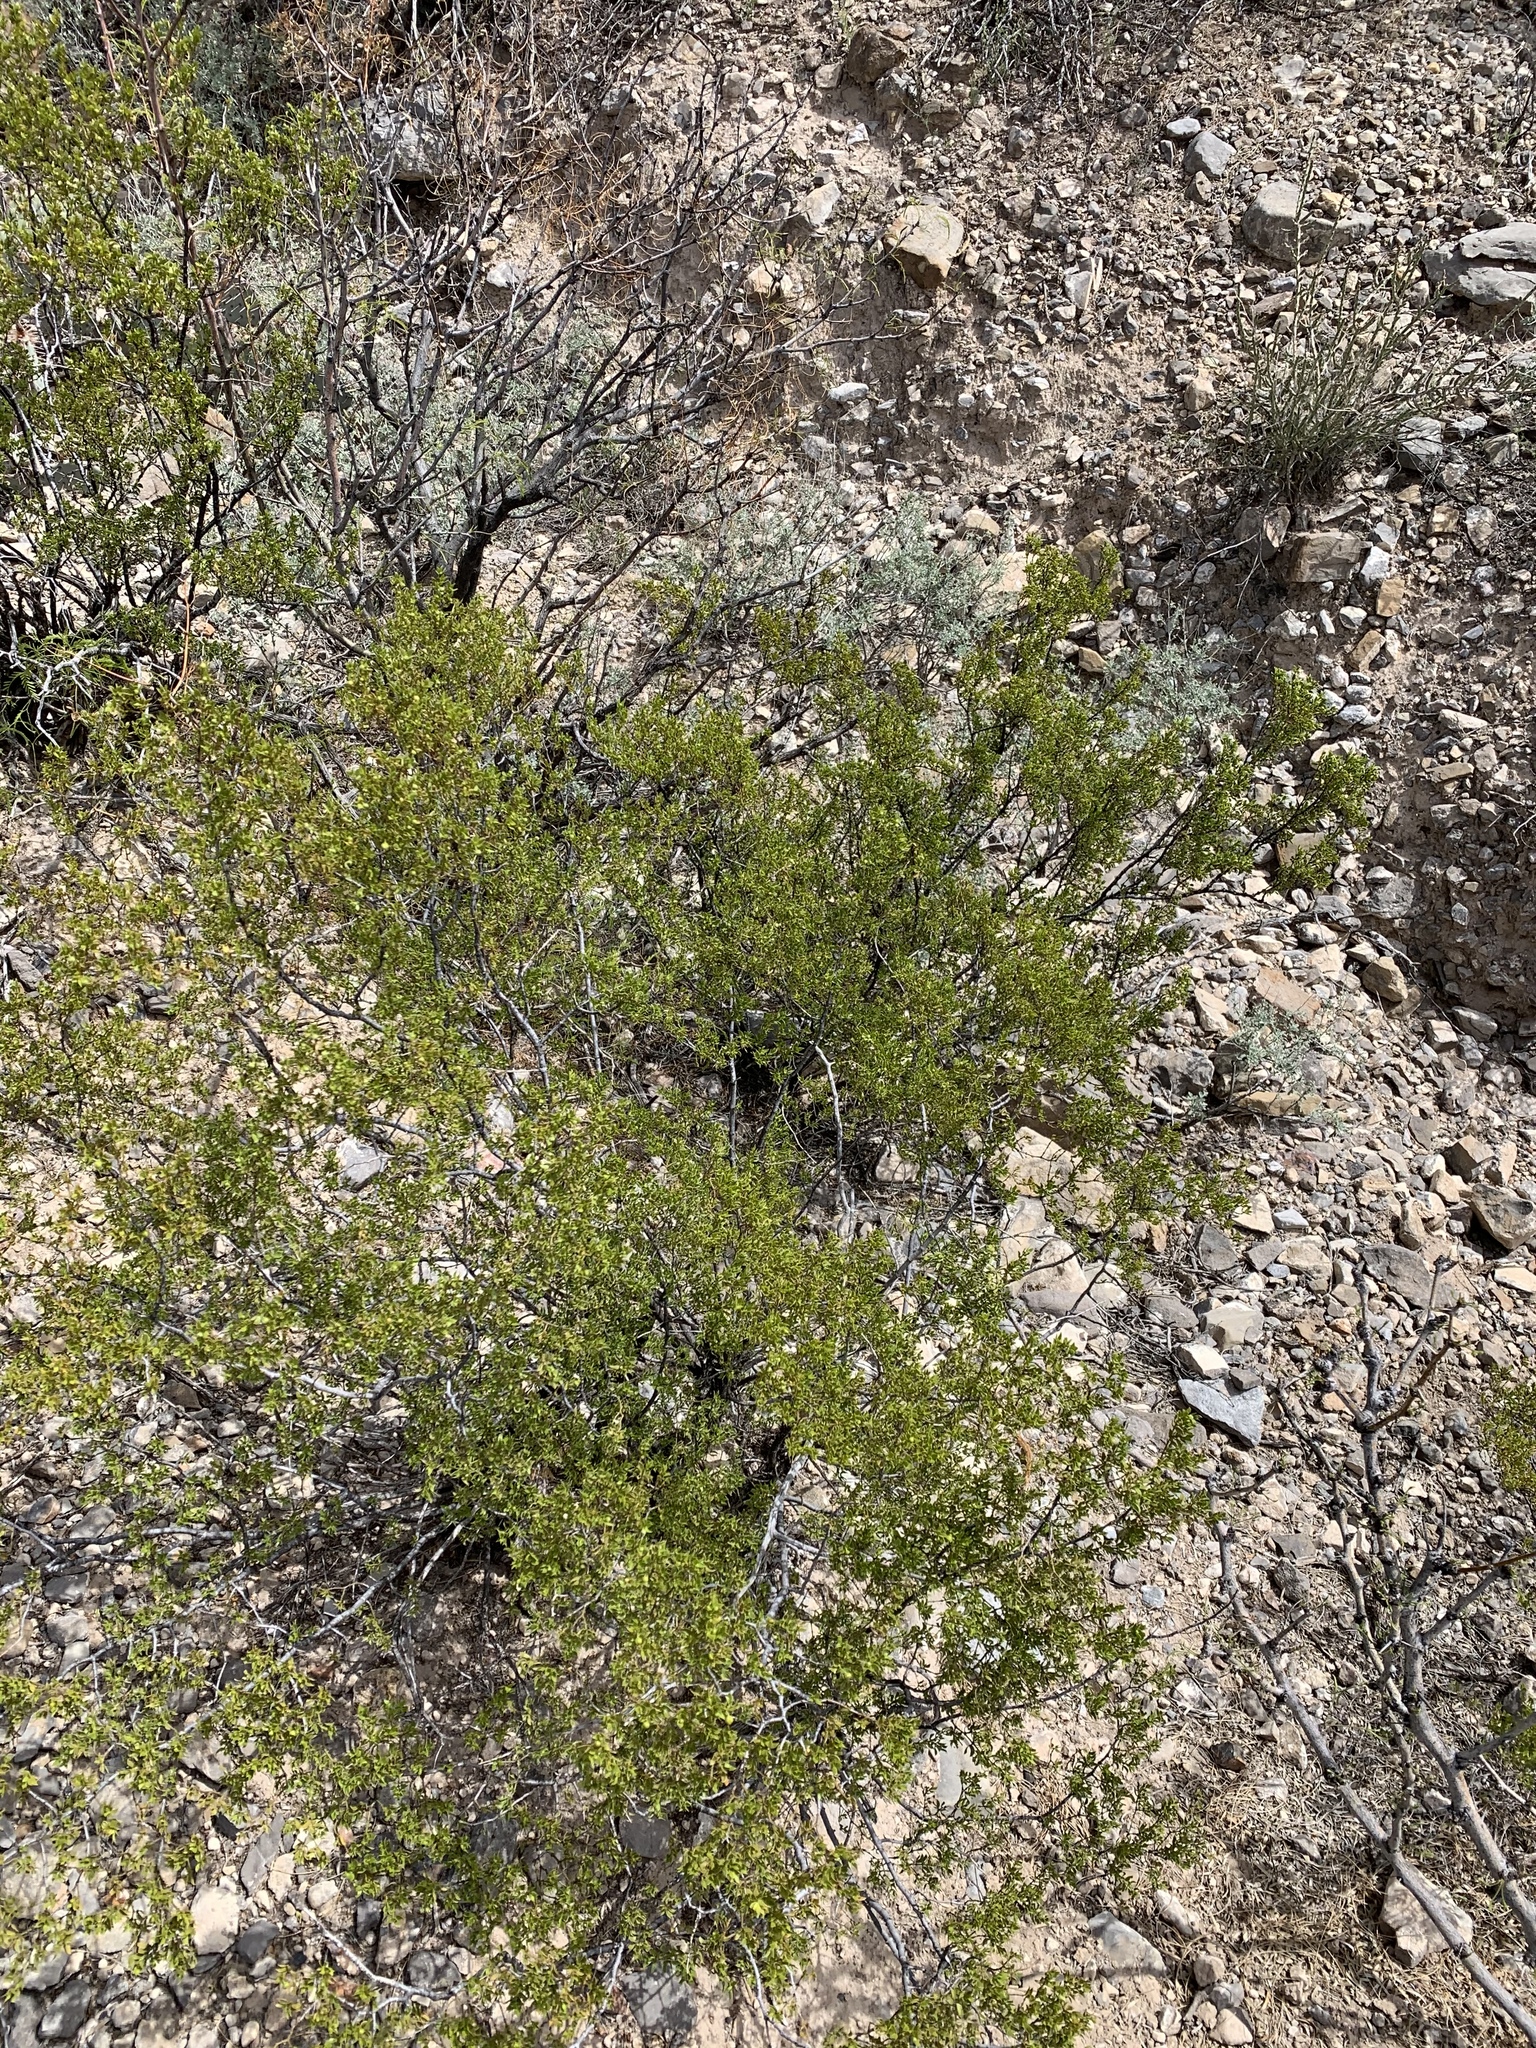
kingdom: Plantae
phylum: Tracheophyta
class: Magnoliopsida
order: Zygophyllales
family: Zygophyllaceae
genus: Larrea
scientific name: Larrea tridentata
